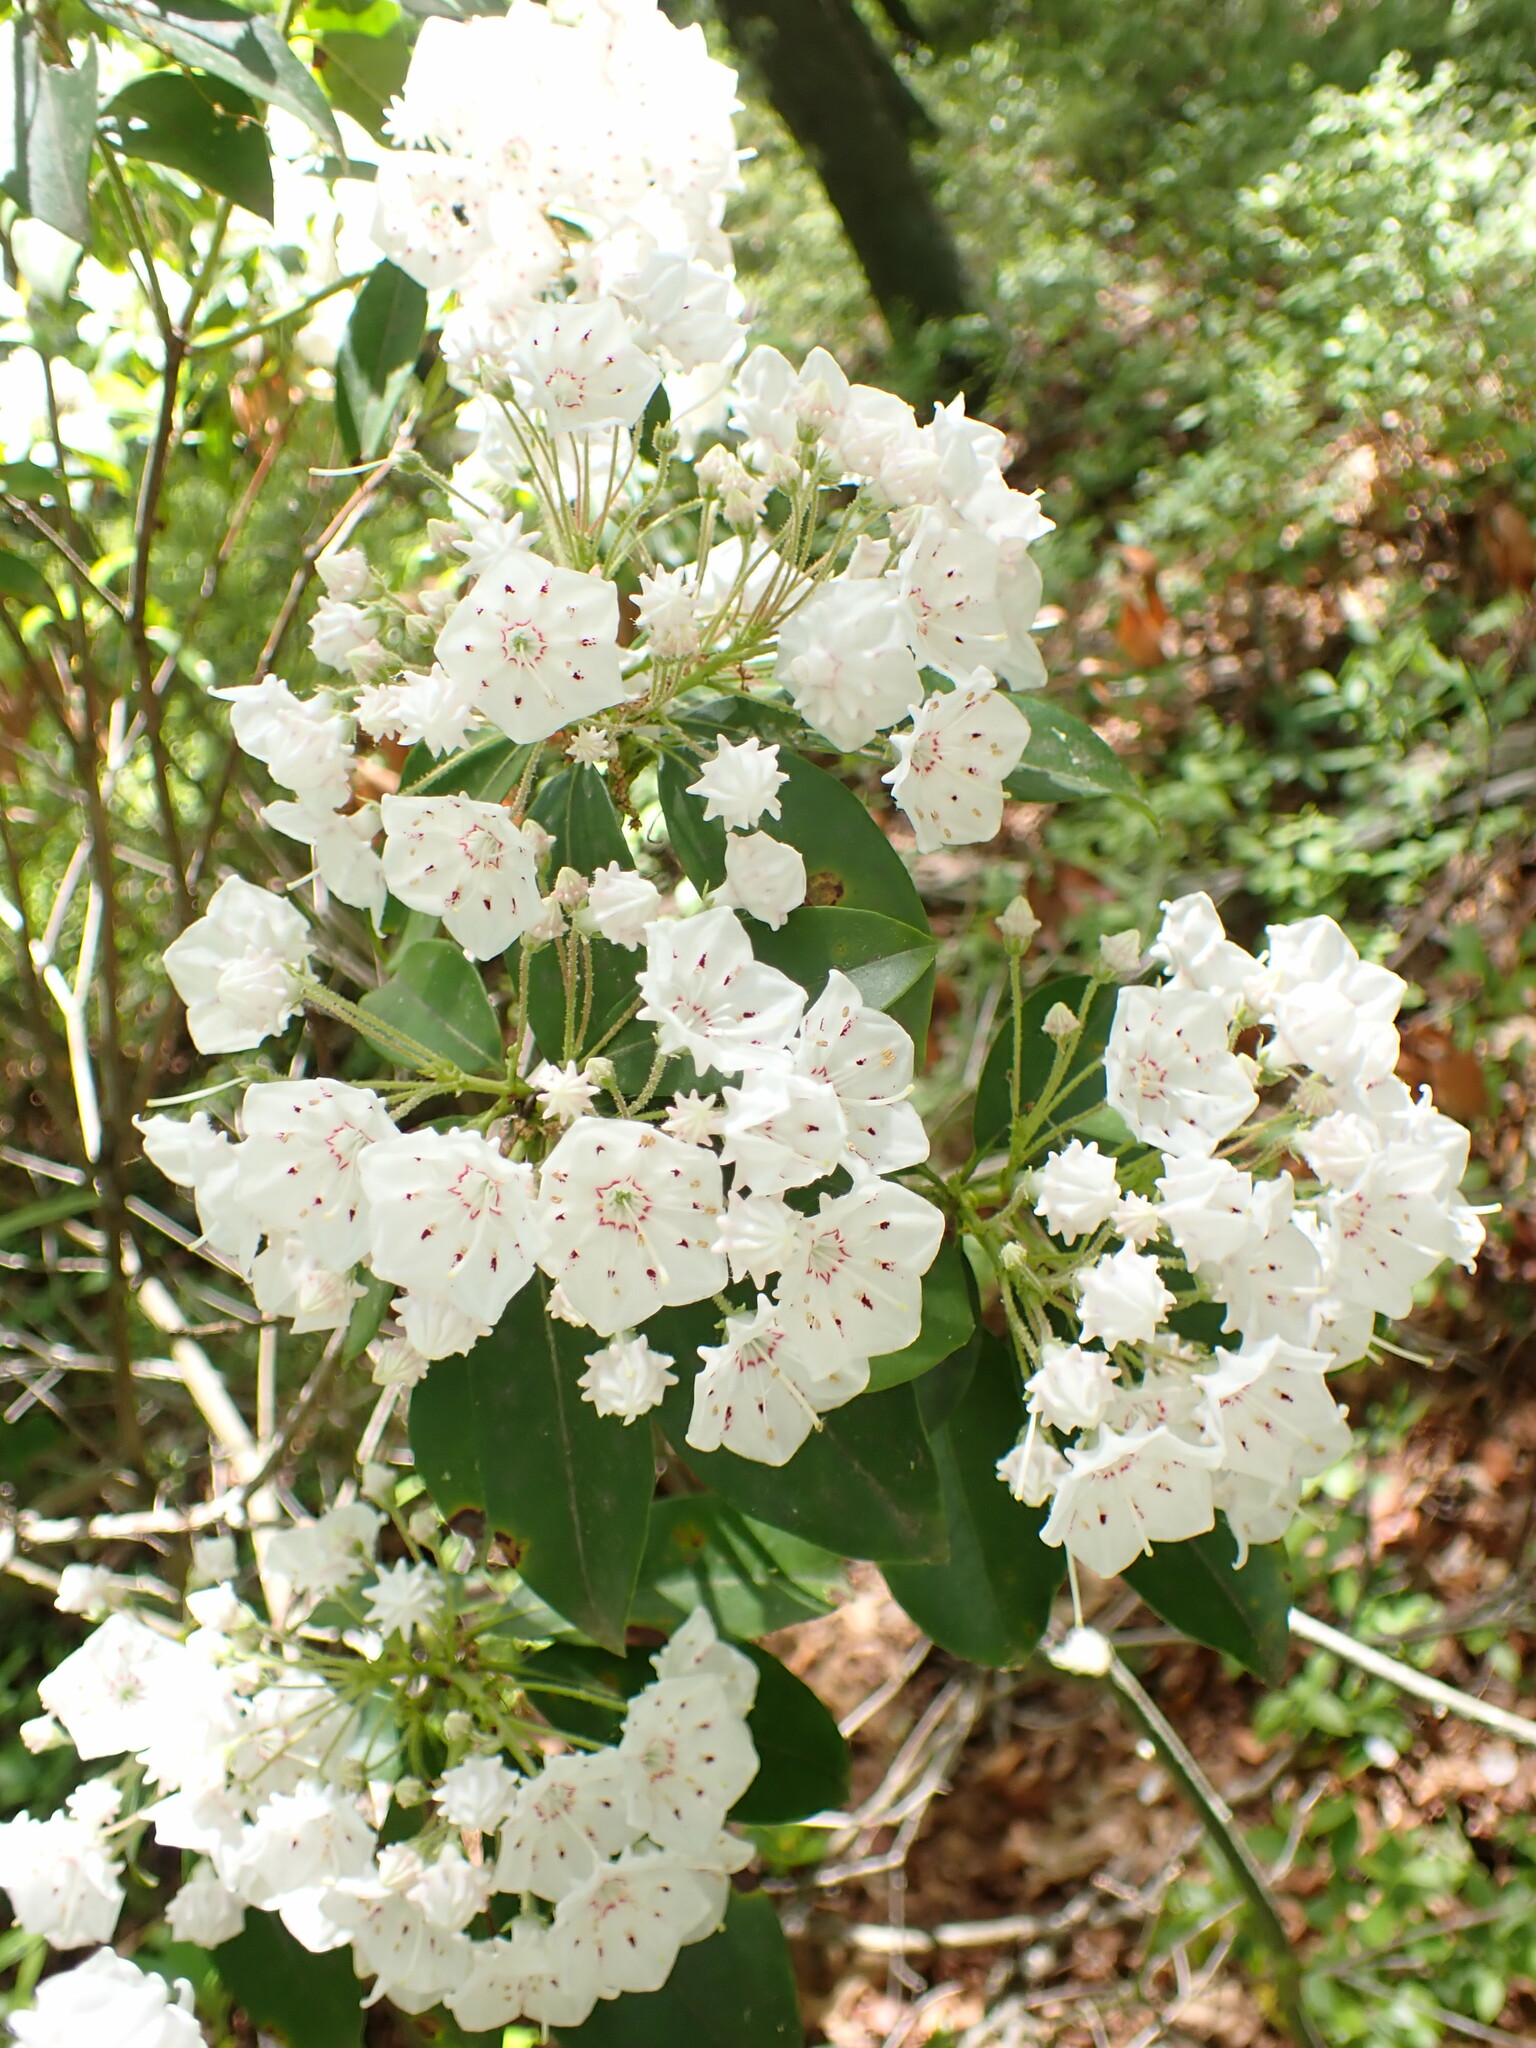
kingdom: Plantae
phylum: Tracheophyta
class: Magnoliopsida
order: Ericales
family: Ericaceae
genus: Kalmia
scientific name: Kalmia latifolia
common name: Mountain-laurel
